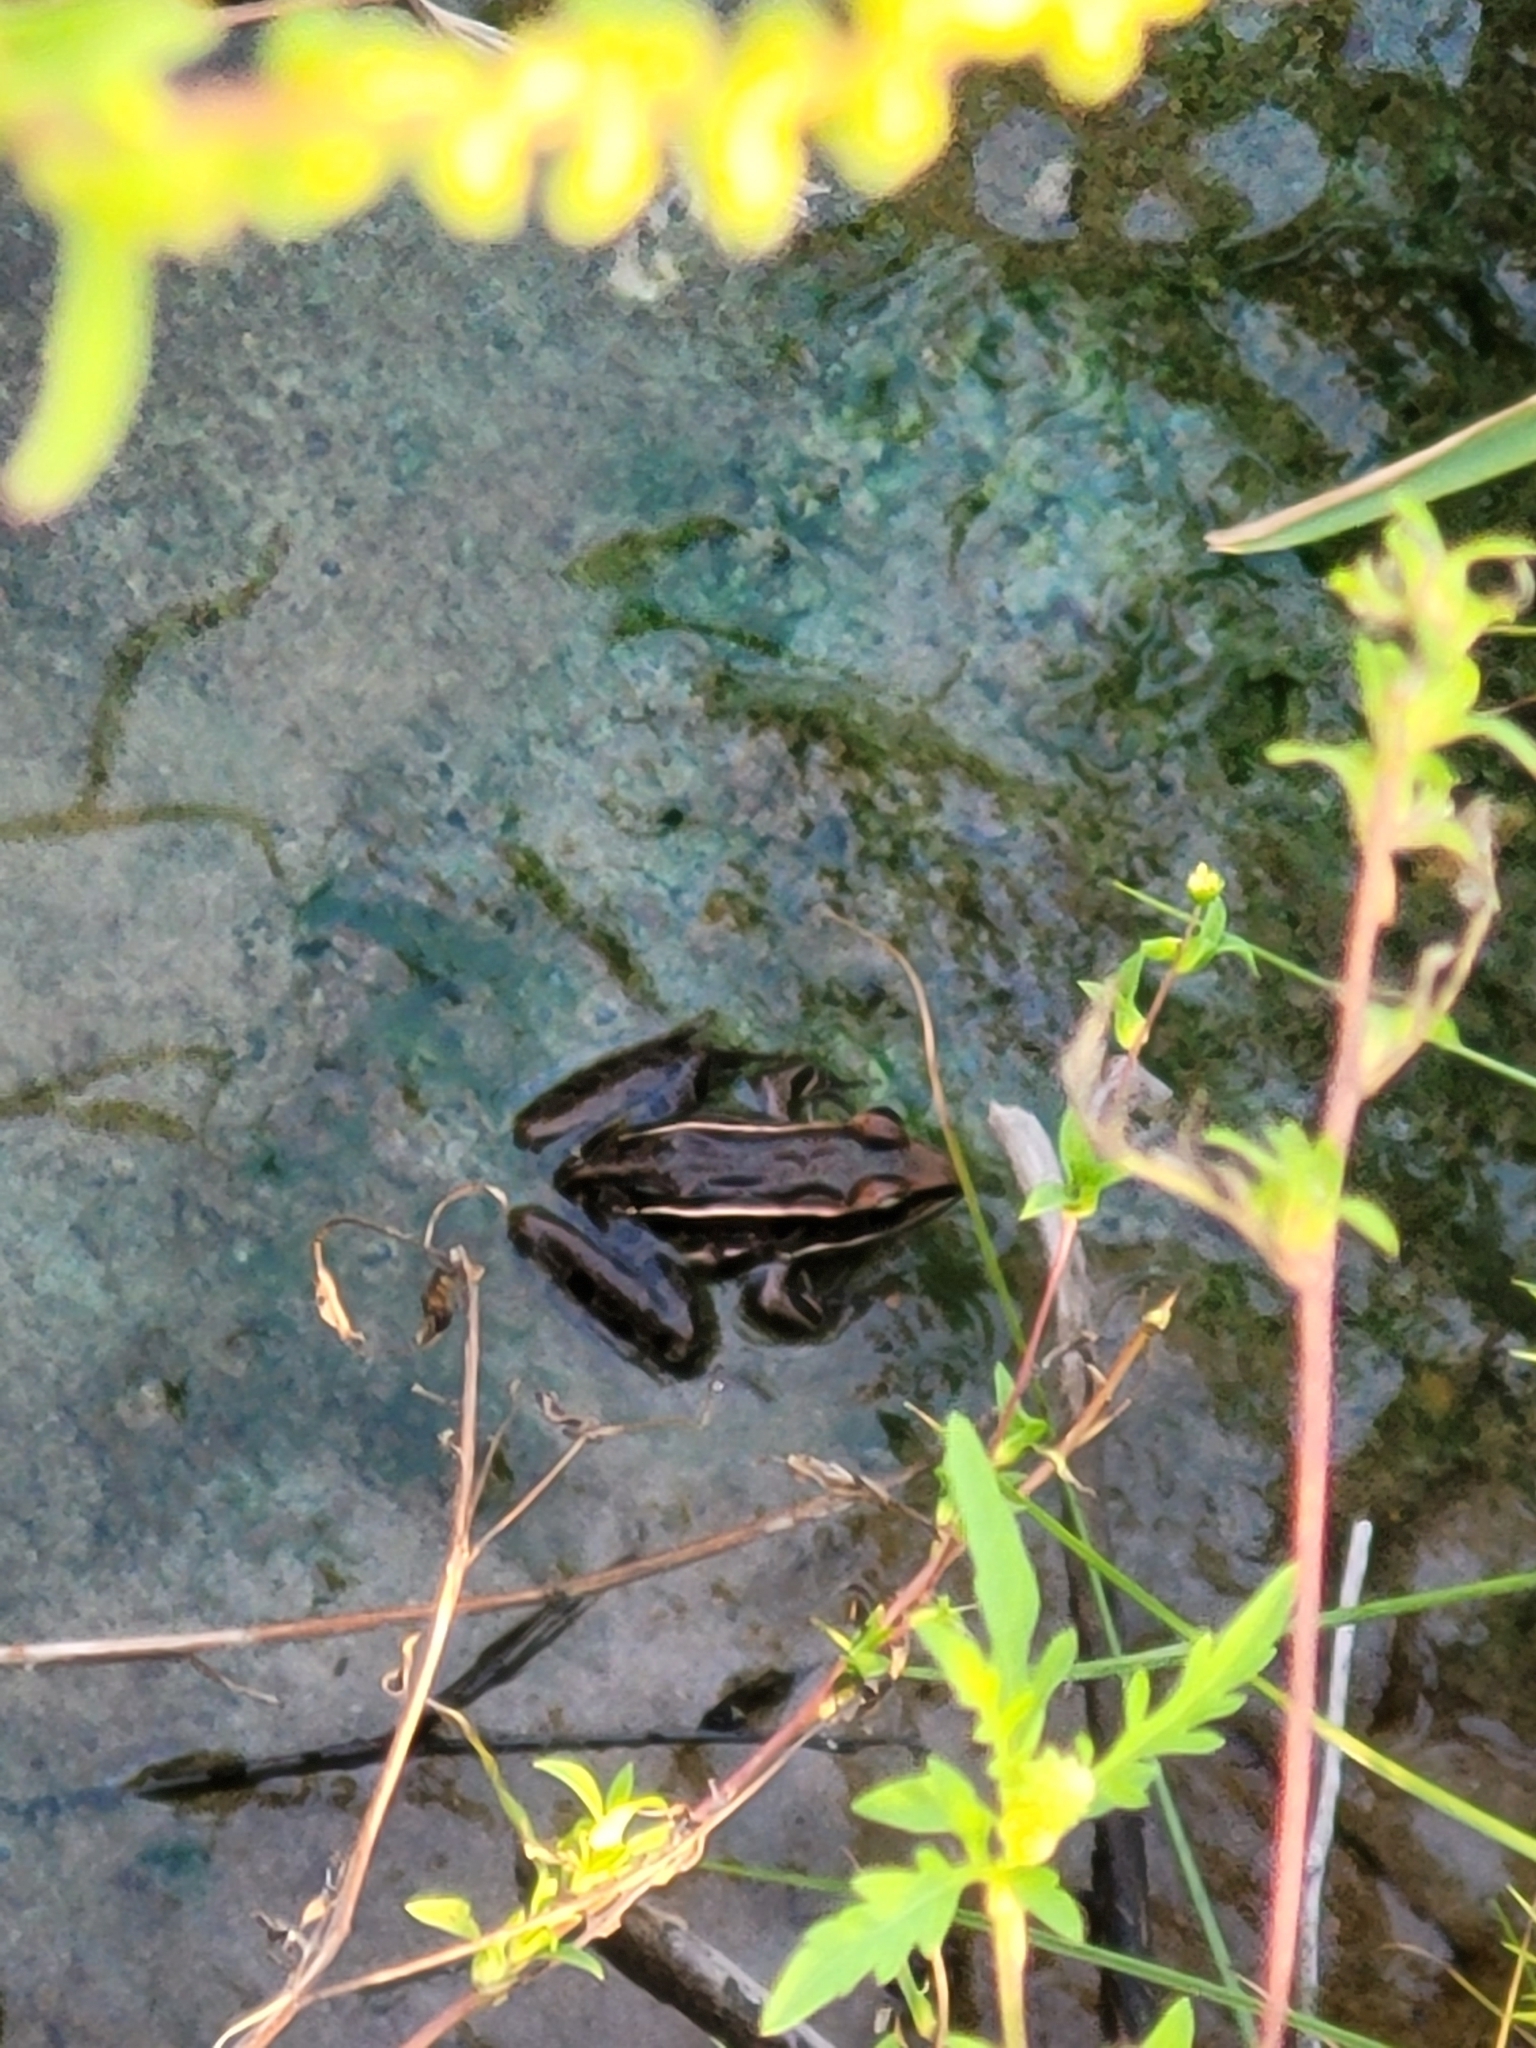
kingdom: Animalia
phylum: Chordata
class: Amphibia
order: Anura
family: Ranidae
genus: Lithobates
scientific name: Lithobates sphenocephalus
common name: Southern leopard frog
